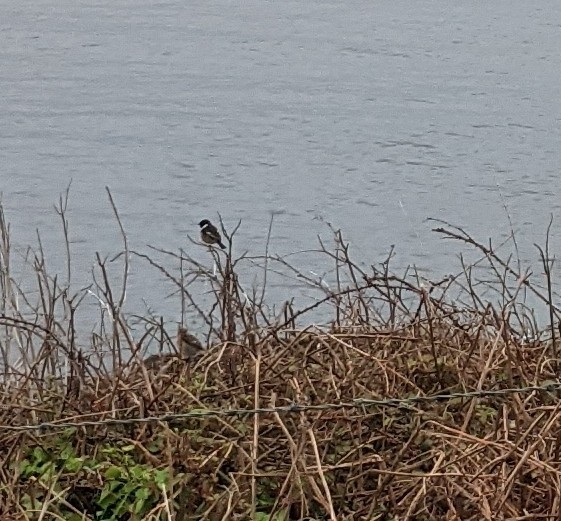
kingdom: Animalia
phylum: Chordata
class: Aves
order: Passeriformes
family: Muscicapidae
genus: Saxicola
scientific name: Saxicola rubicola
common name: European stonechat
